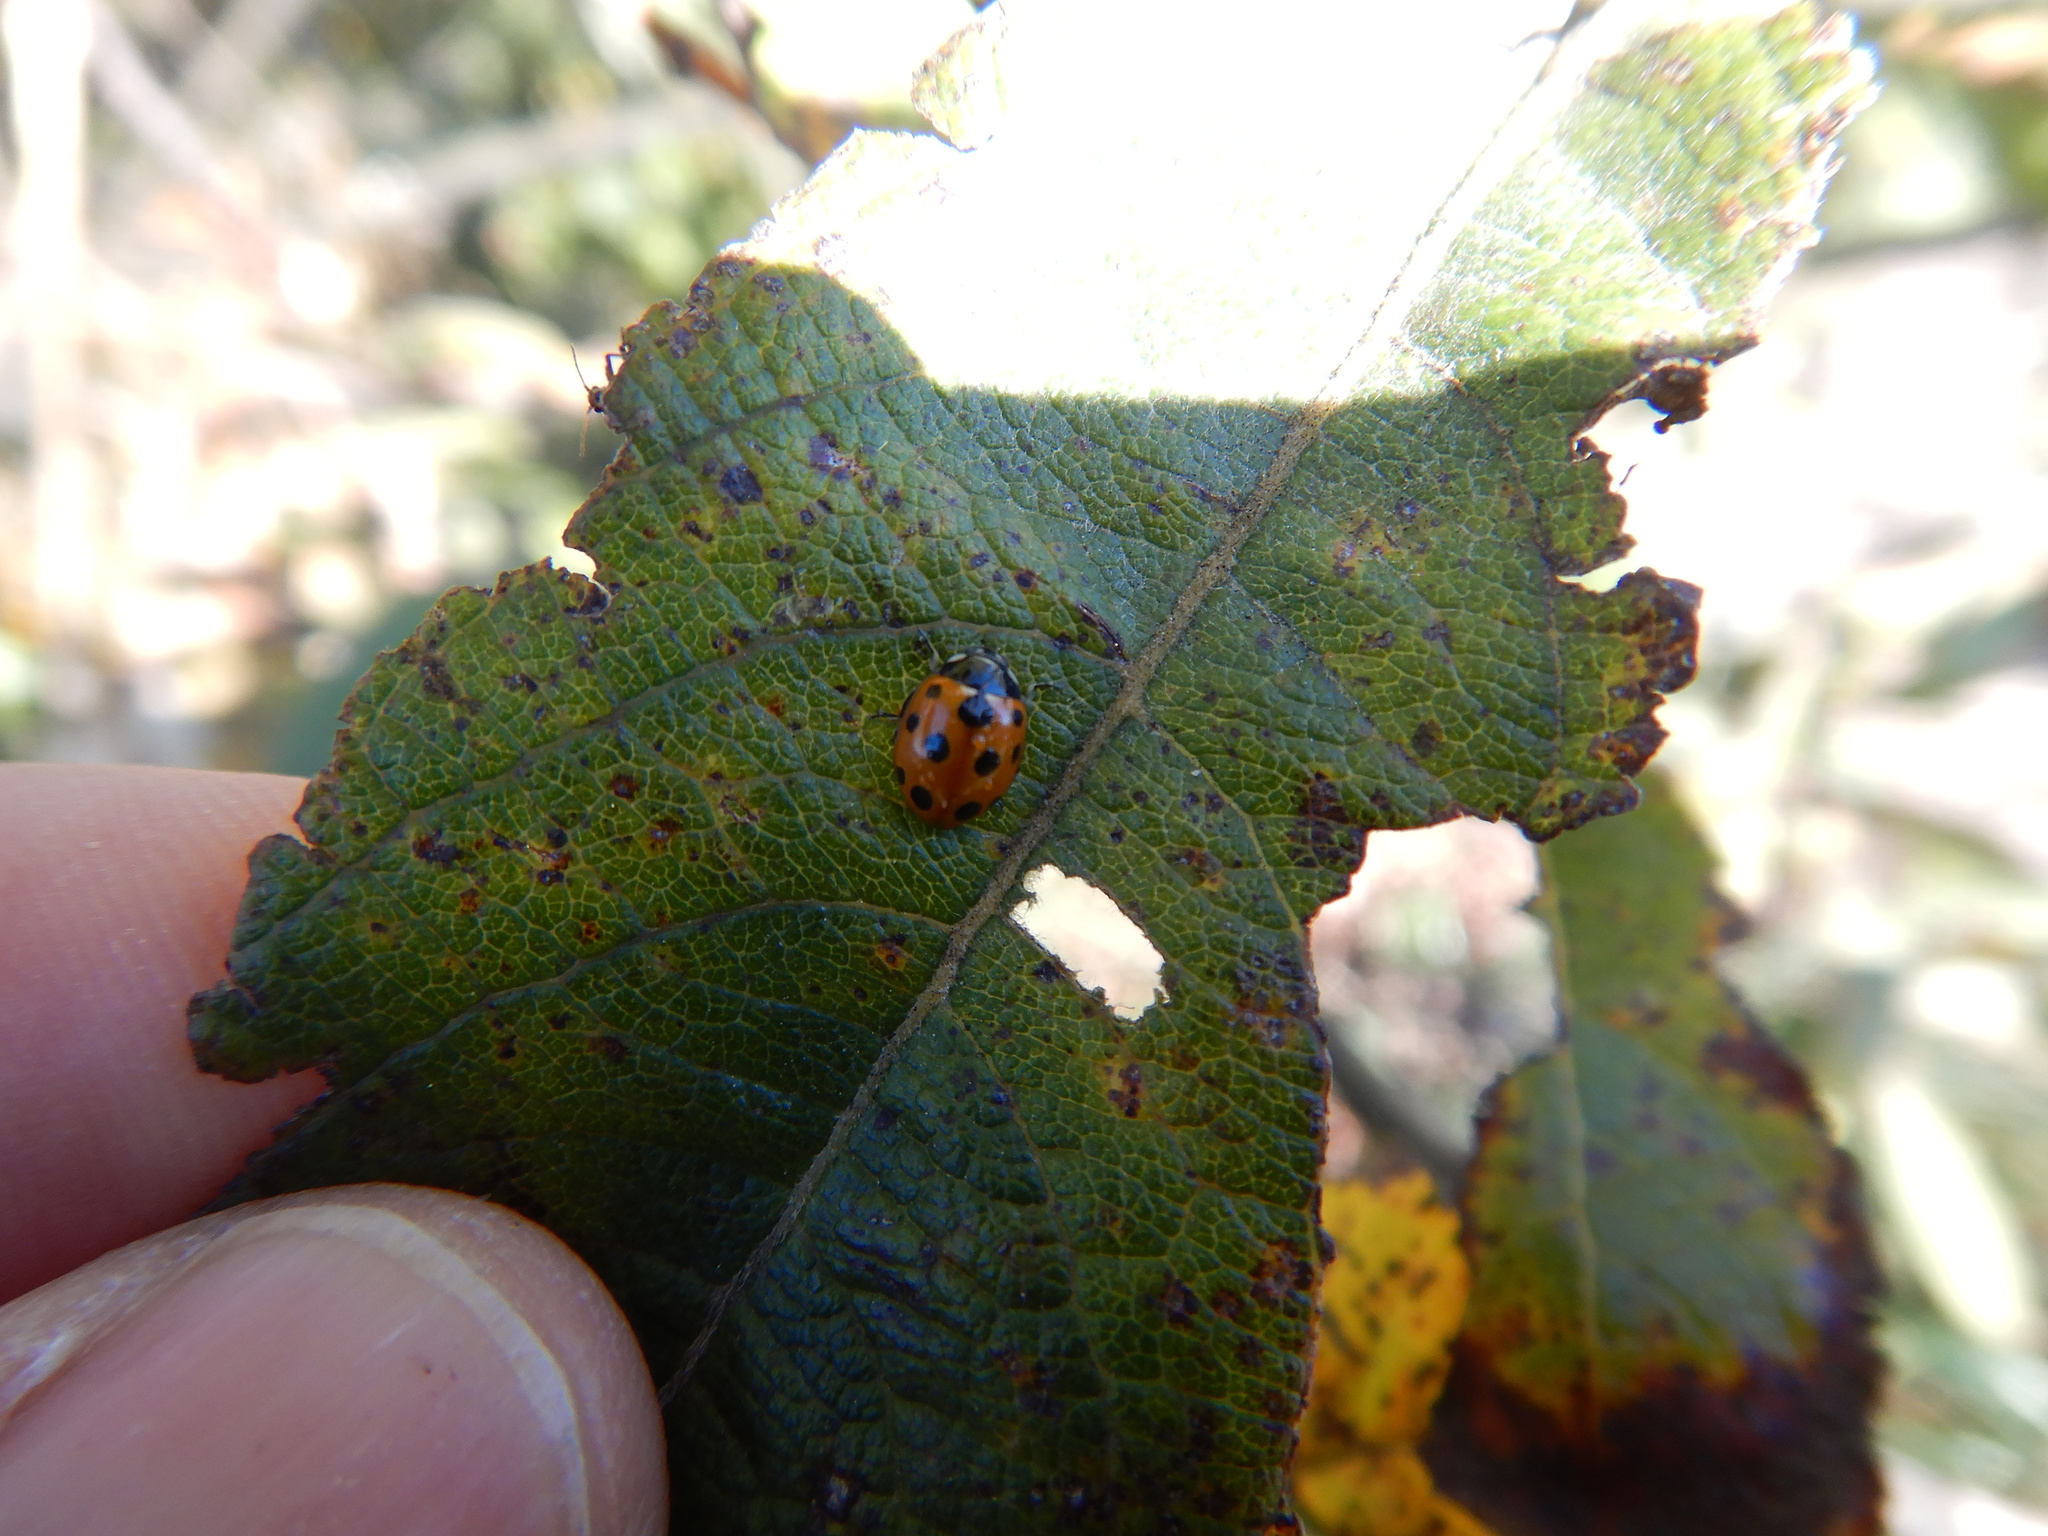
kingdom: Animalia
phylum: Arthropoda
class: Insecta
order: Coleoptera
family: Coccinellidae
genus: Coccinella
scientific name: Coccinella undecimpunctata
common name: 11-spot ladybird
